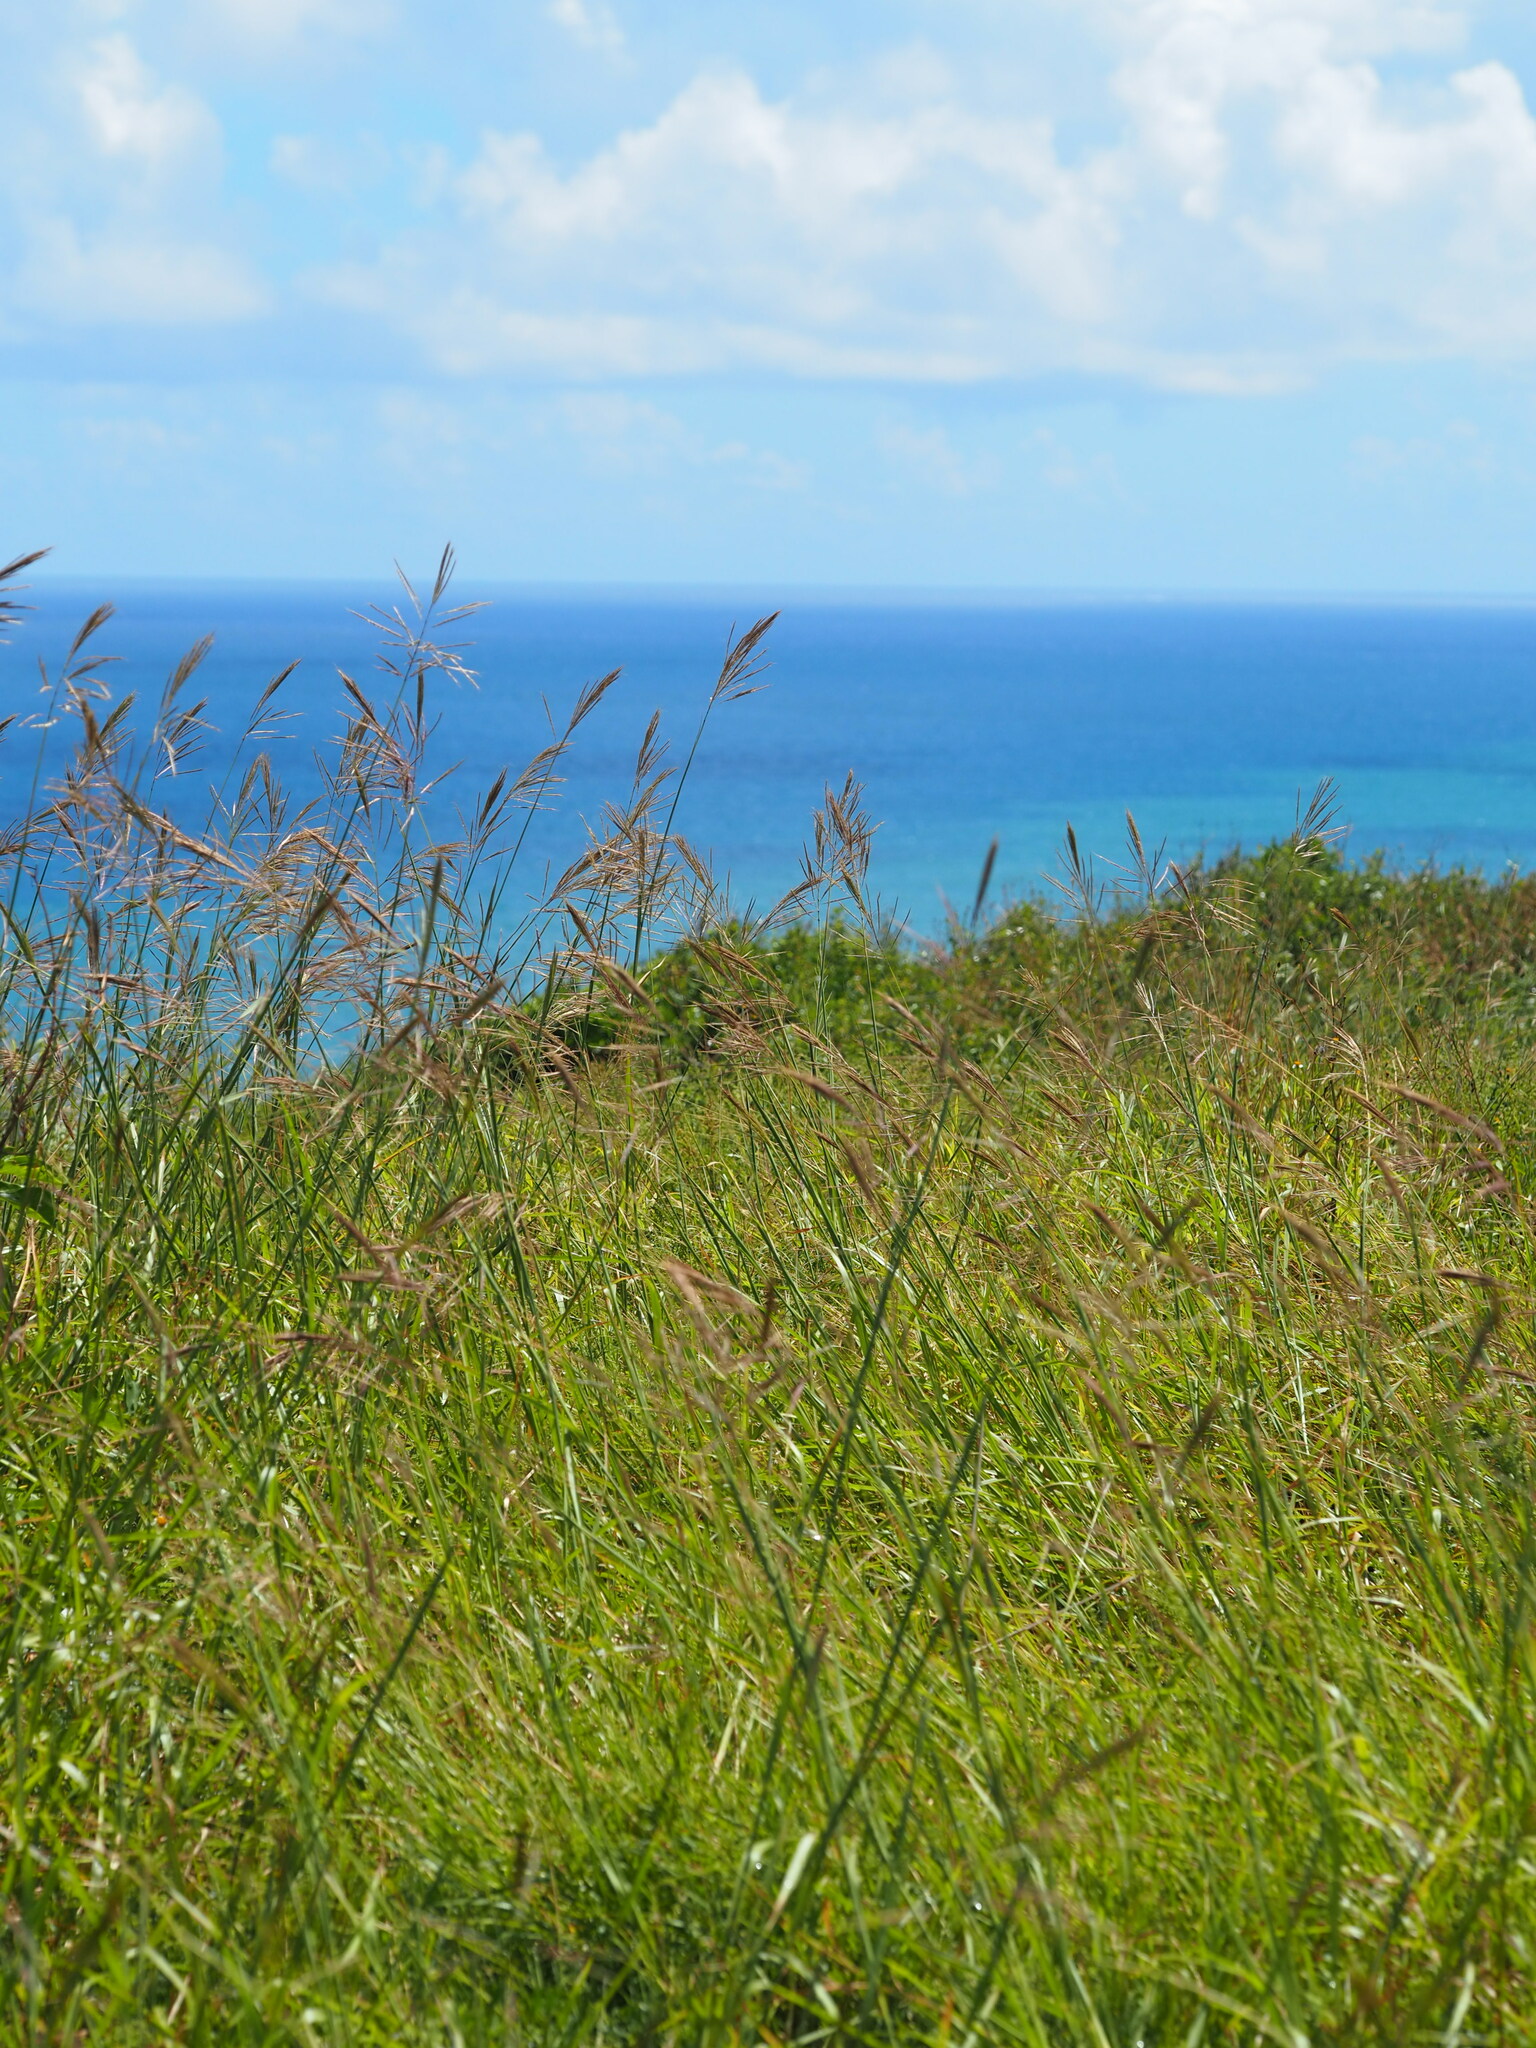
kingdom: Plantae
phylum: Tracheophyta
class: Liliopsida
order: Poales
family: Poaceae
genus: Bothriochloa
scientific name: Bothriochloa glabra
